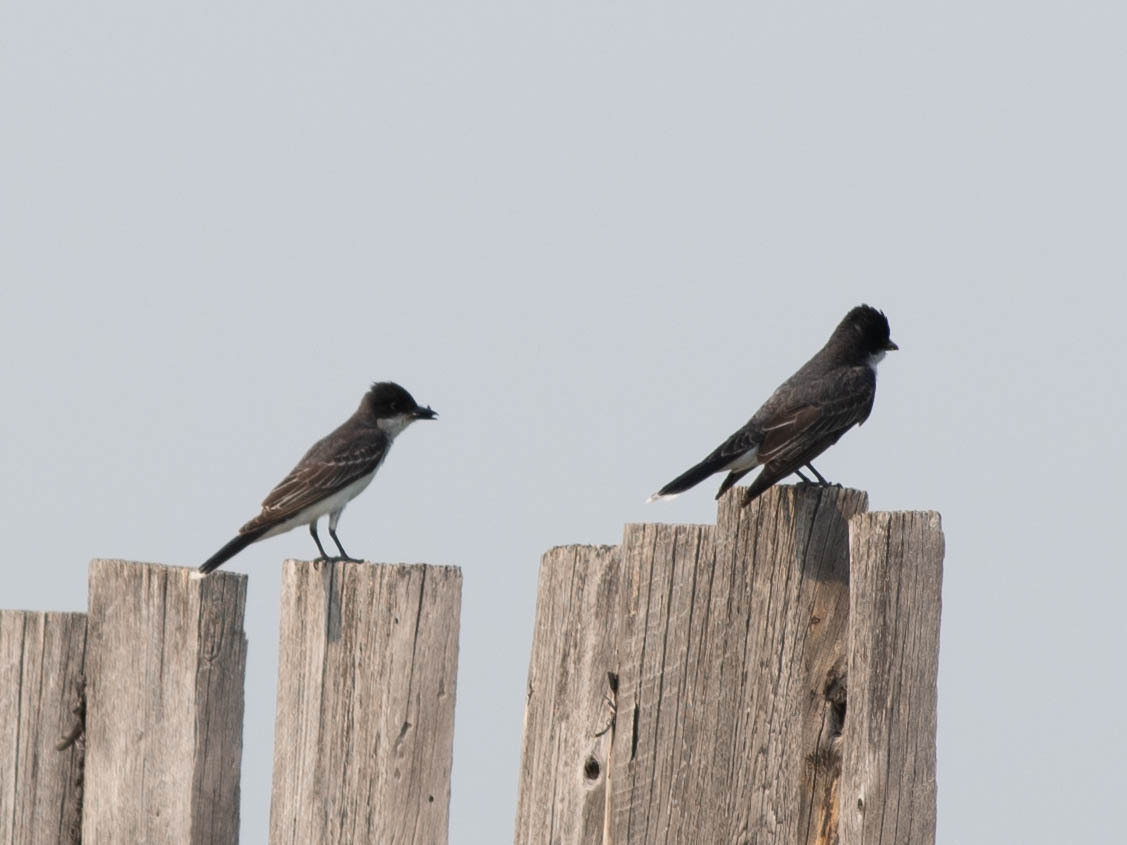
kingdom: Animalia
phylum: Chordata
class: Aves
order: Passeriformes
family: Tyrannidae
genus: Tyrannus
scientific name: Tyrannus tyrannus
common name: Eastern kingbird
